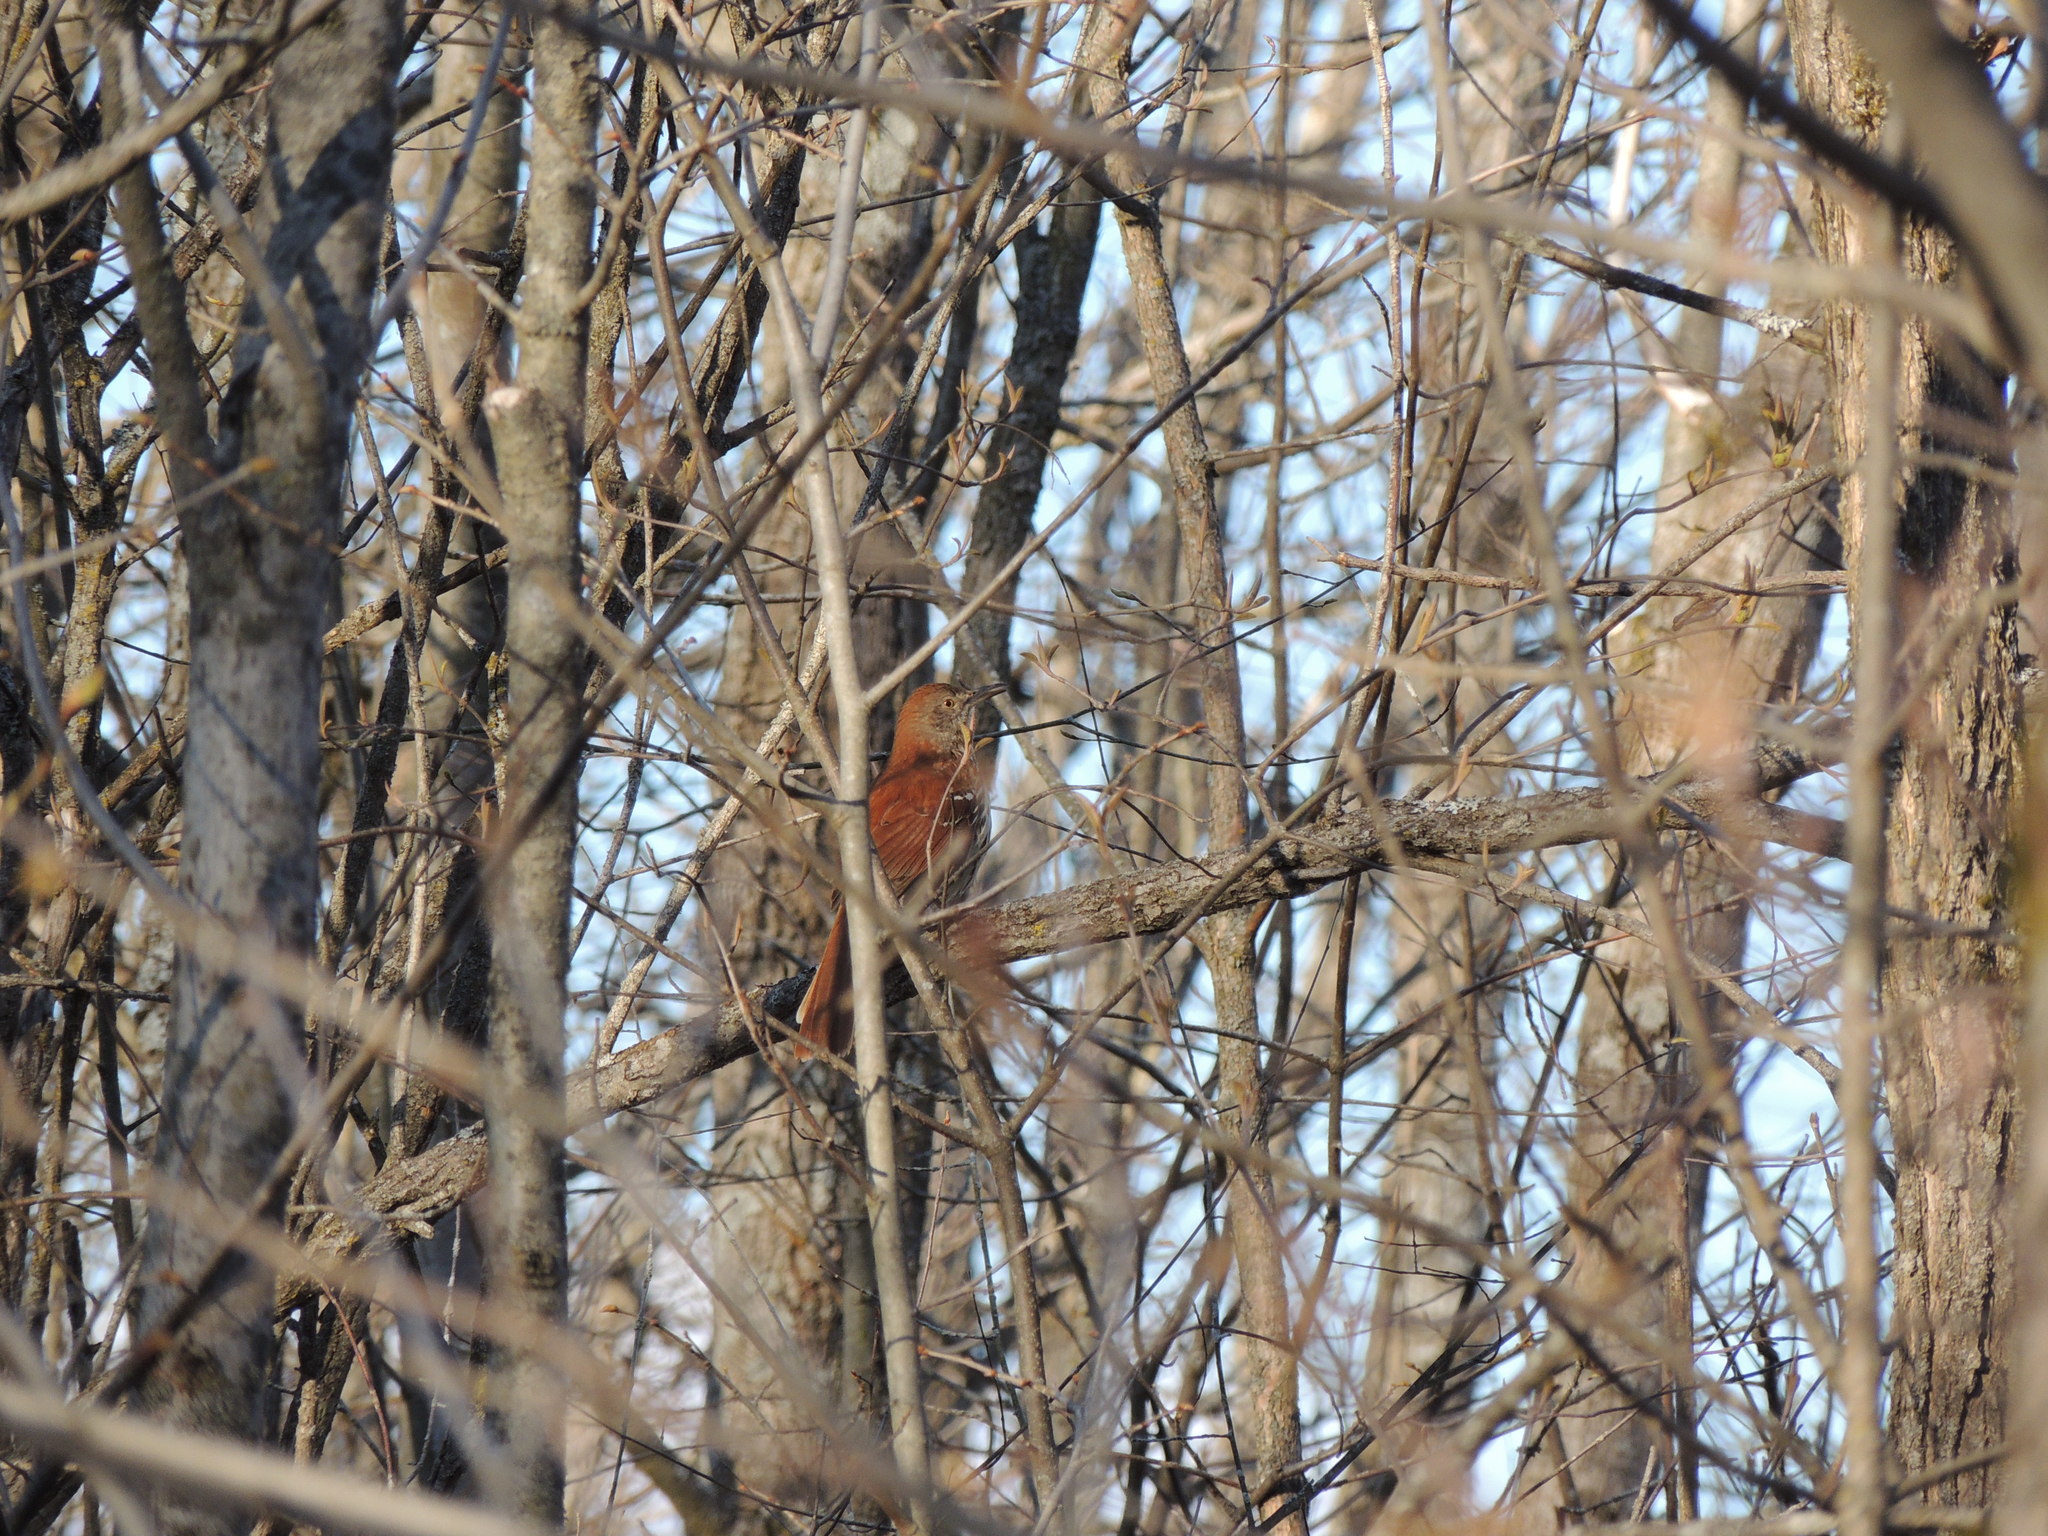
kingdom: Animalia
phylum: Chordata
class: Aves
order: Passeriformes
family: Mimidae
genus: Toxostoma
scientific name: Toxostoma rufum
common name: Brown thrasher
